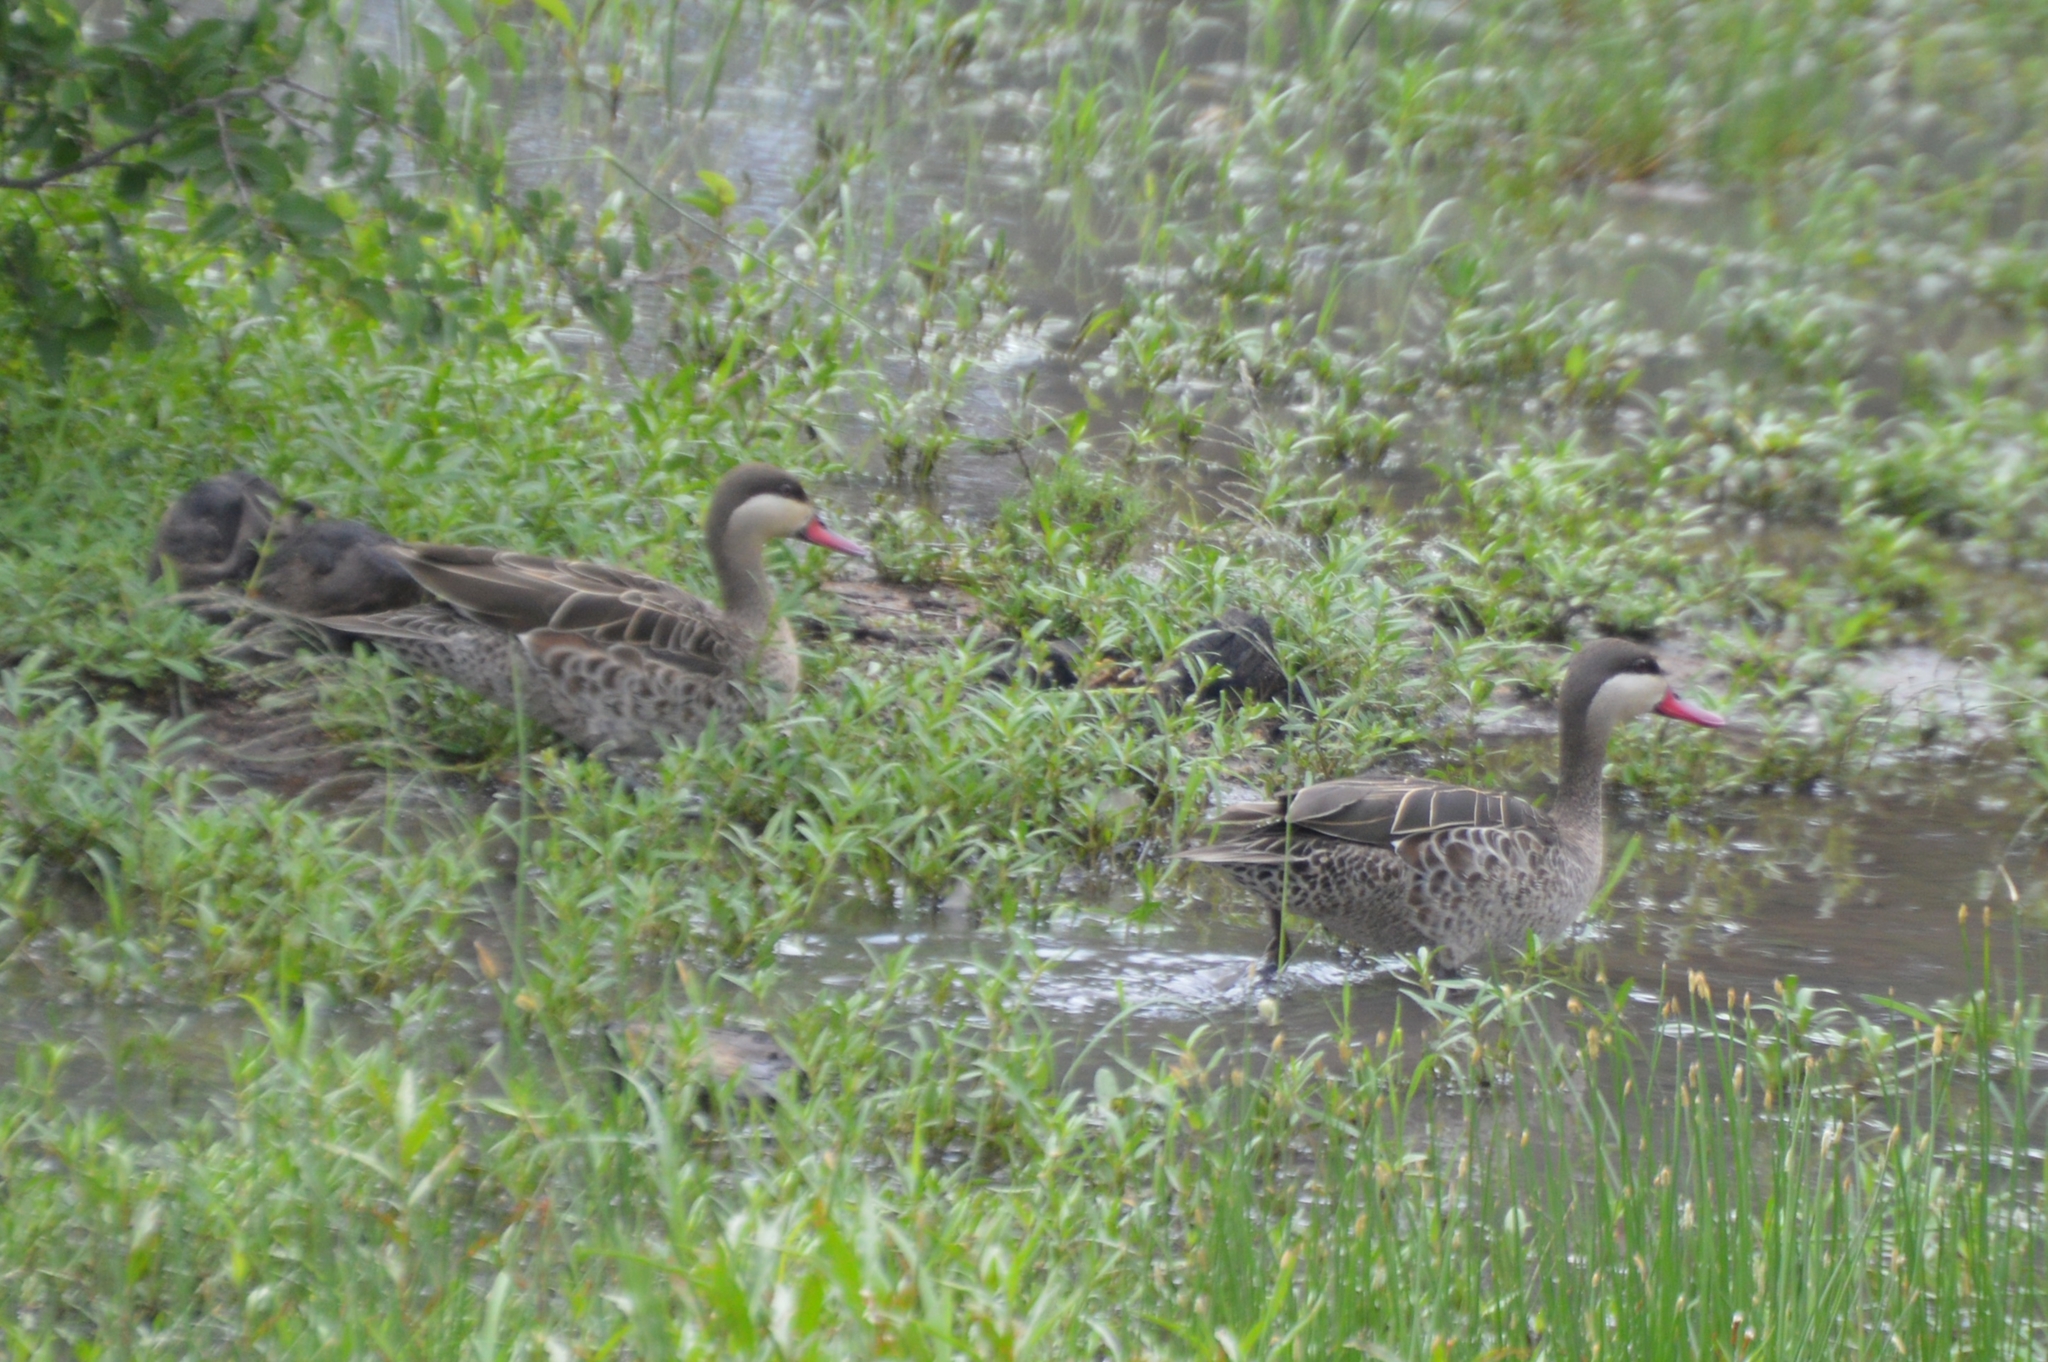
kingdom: Animalia
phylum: Chordata
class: Aves
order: Anseriformes
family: Anatidae
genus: Anas
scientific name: Anas erythrorhyncha
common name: Red-billed teal
